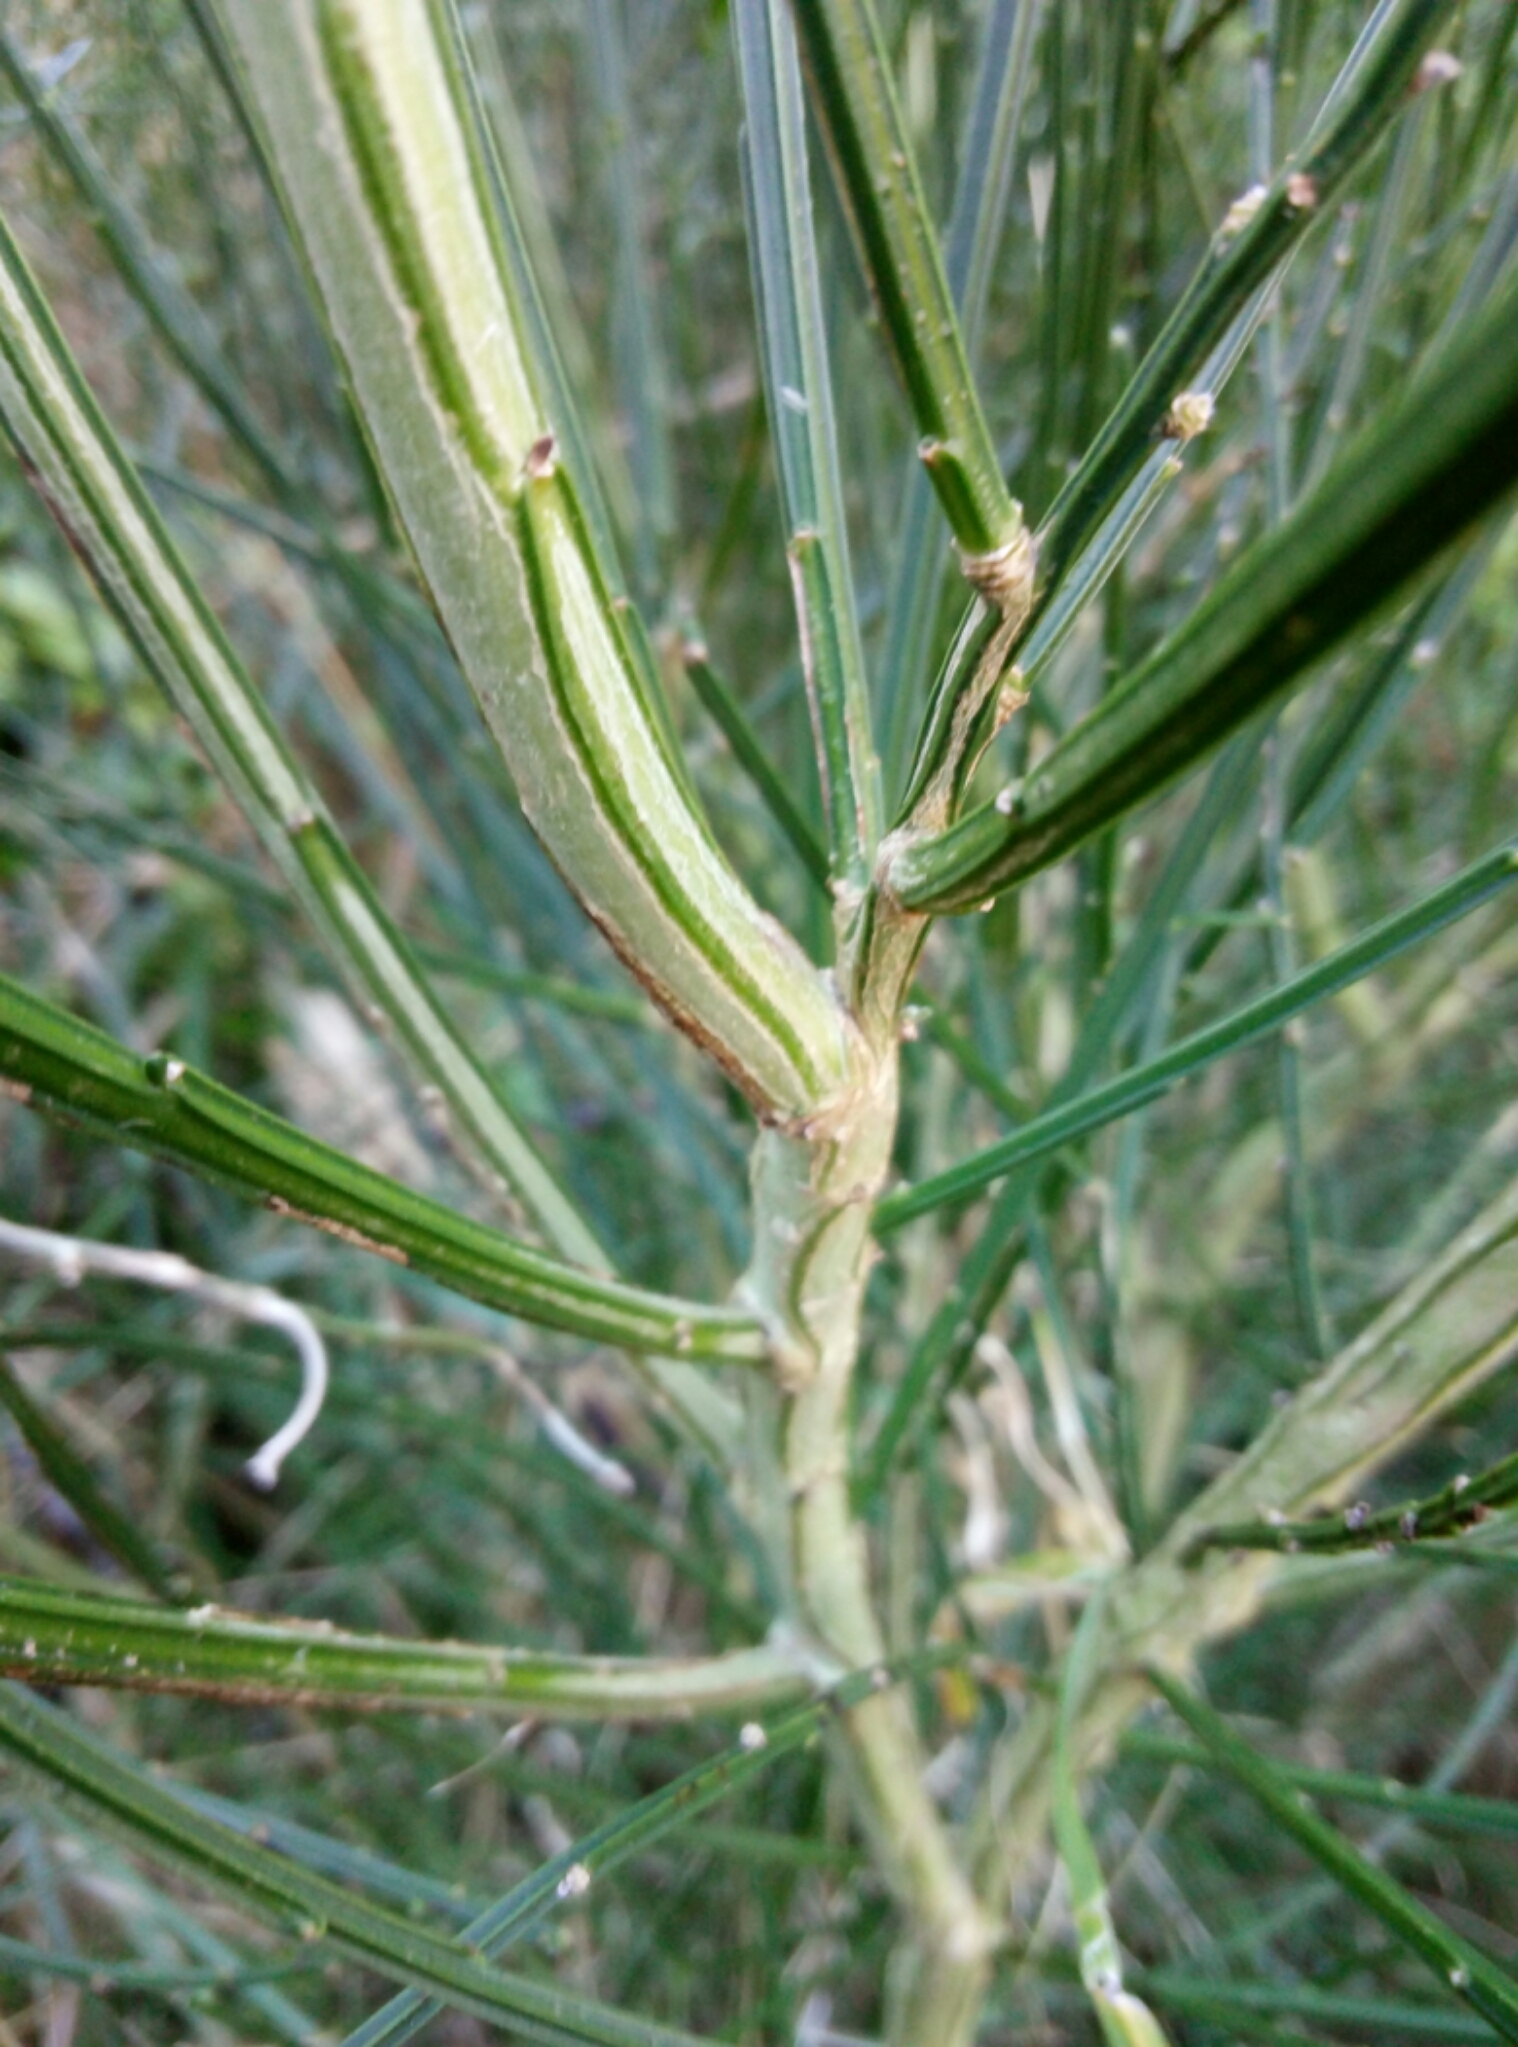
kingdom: Plantae
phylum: Tracheophyta
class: Magnoliopsida
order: Fabales
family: Fabaceae
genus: Cytisus
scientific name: Cytisus scoparius
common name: Scotch broom
